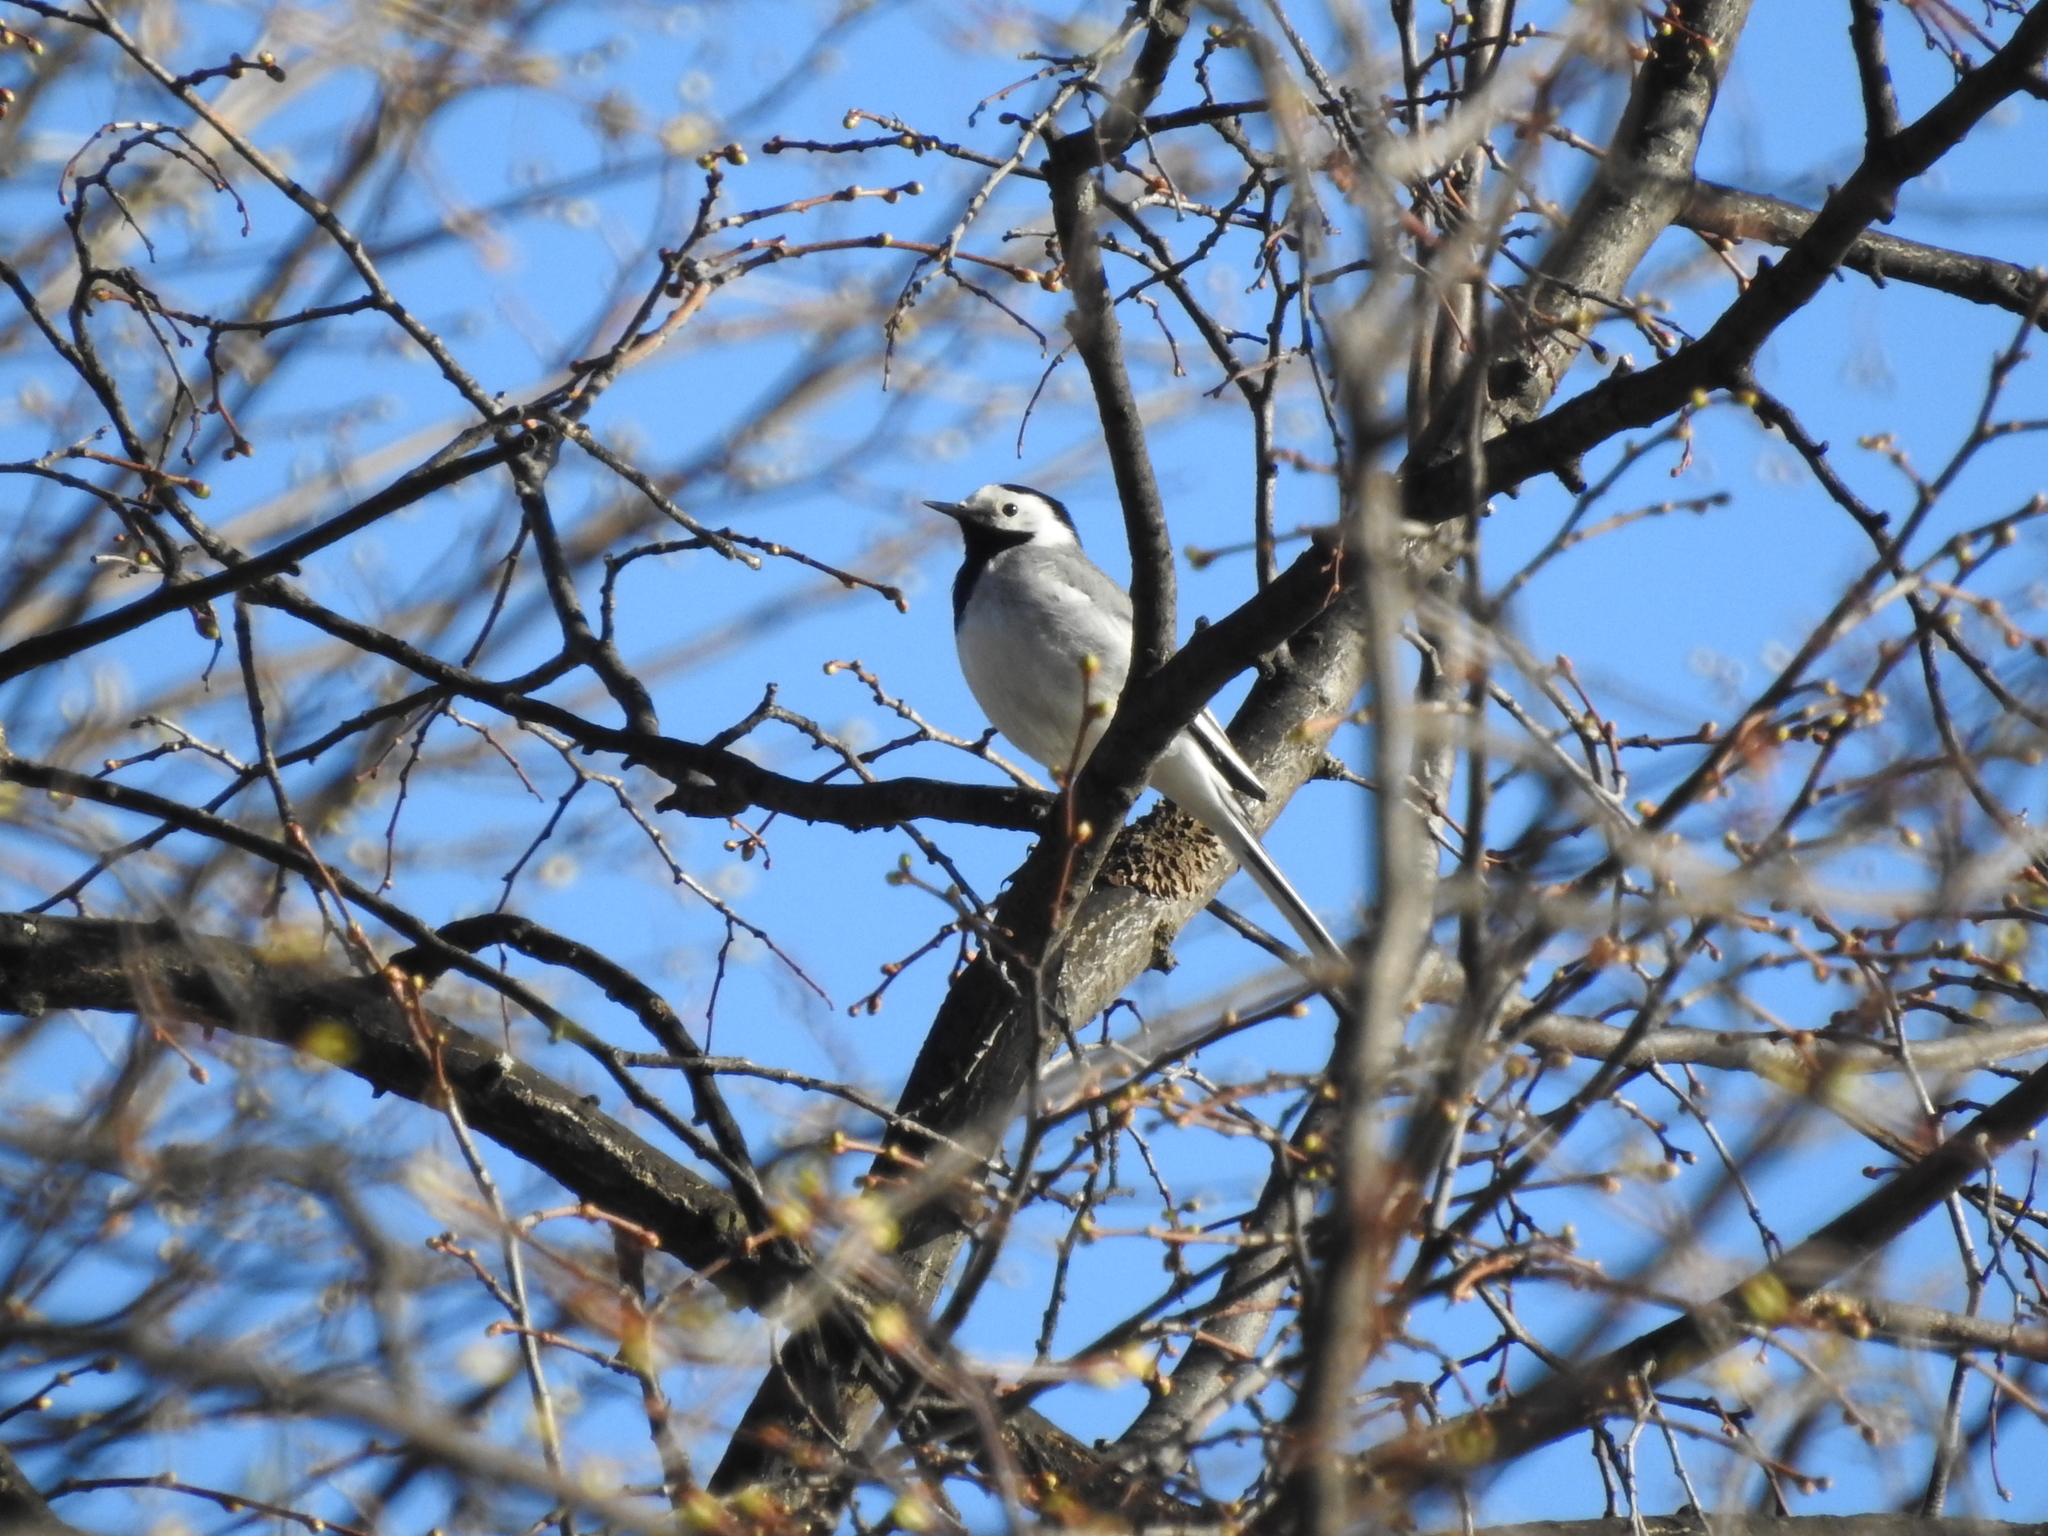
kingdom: Animalia
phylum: Chordata
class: Aves
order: Passeriformes
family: Motacillidae
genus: Motacilla
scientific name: Motacilla alba
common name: White wagtail
